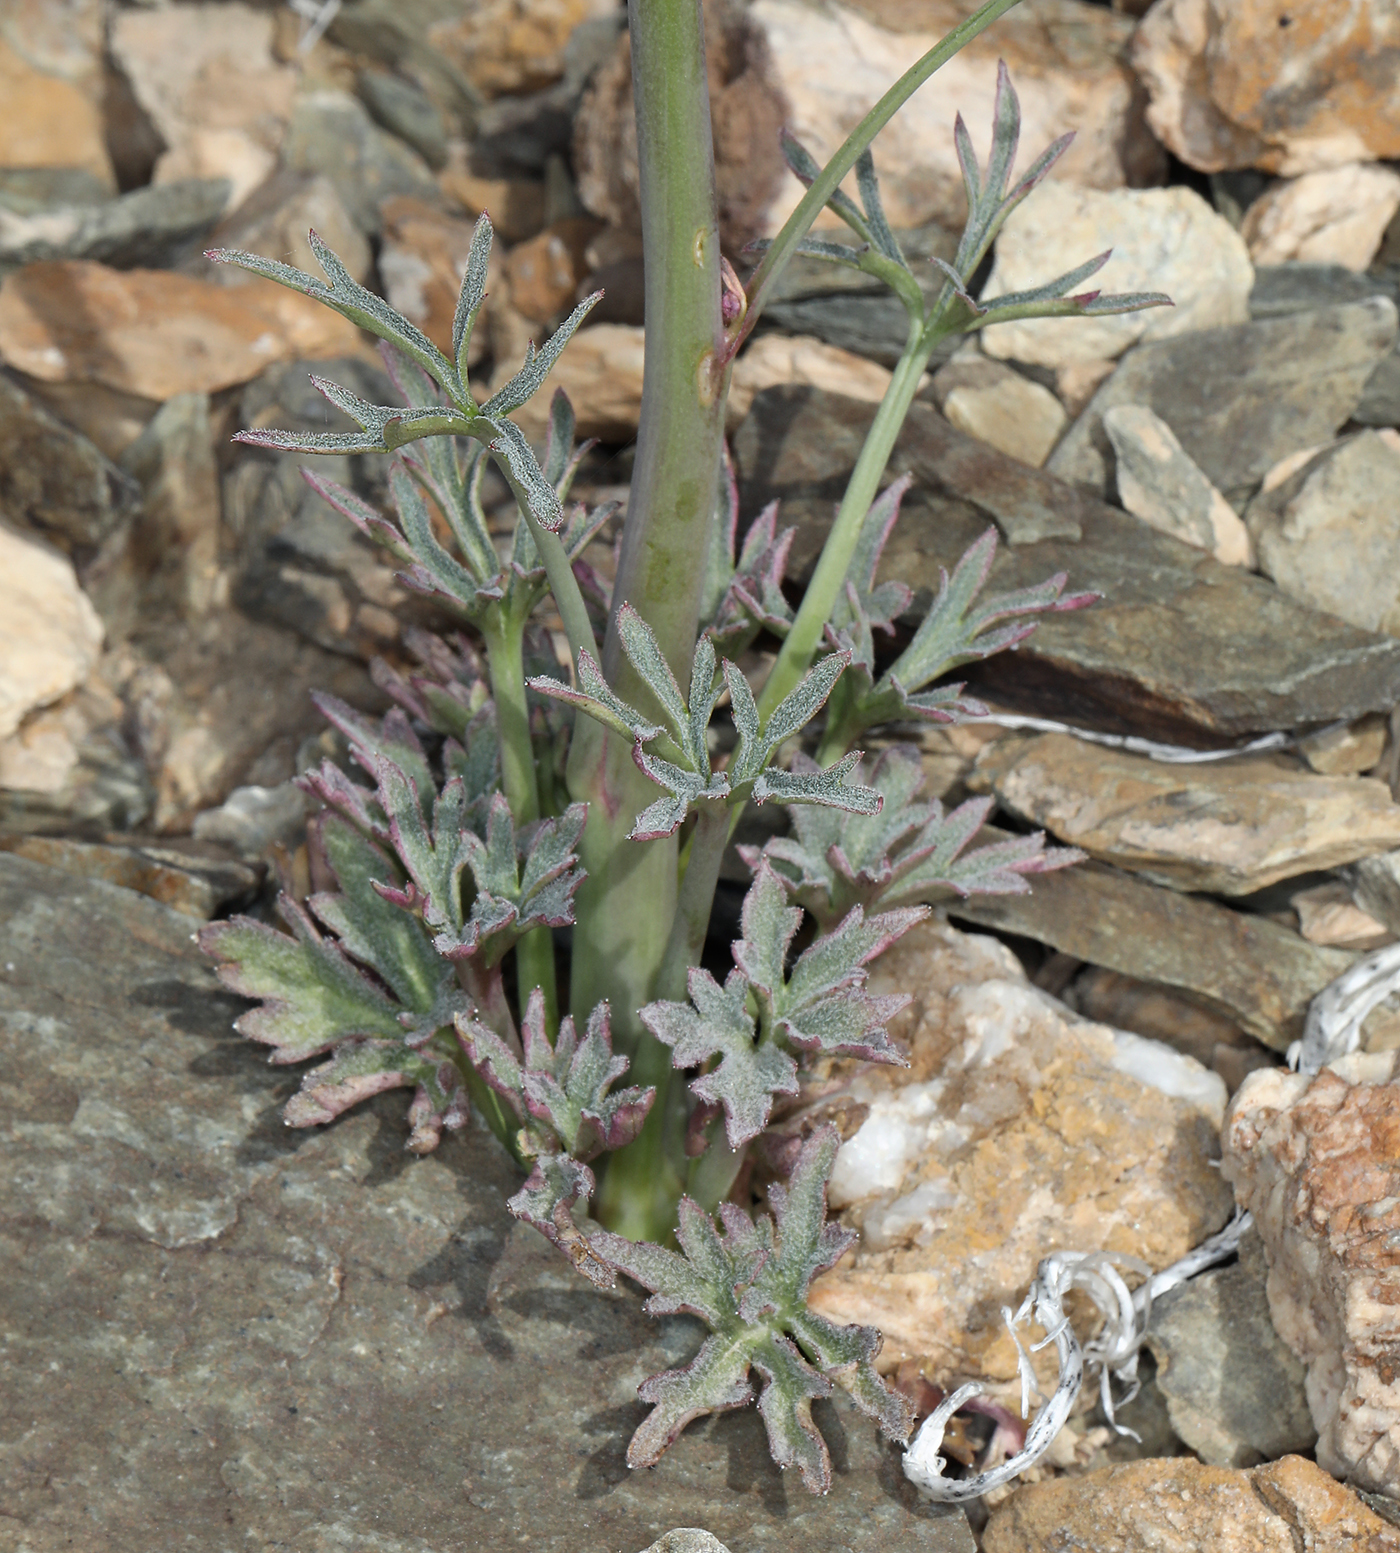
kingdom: Plantae
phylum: Tracheophyta
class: Magnoliopsida
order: Ranunculales
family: Ranunculaceae
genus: Delphinium
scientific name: Delphinium parishii
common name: Apache larkspur
